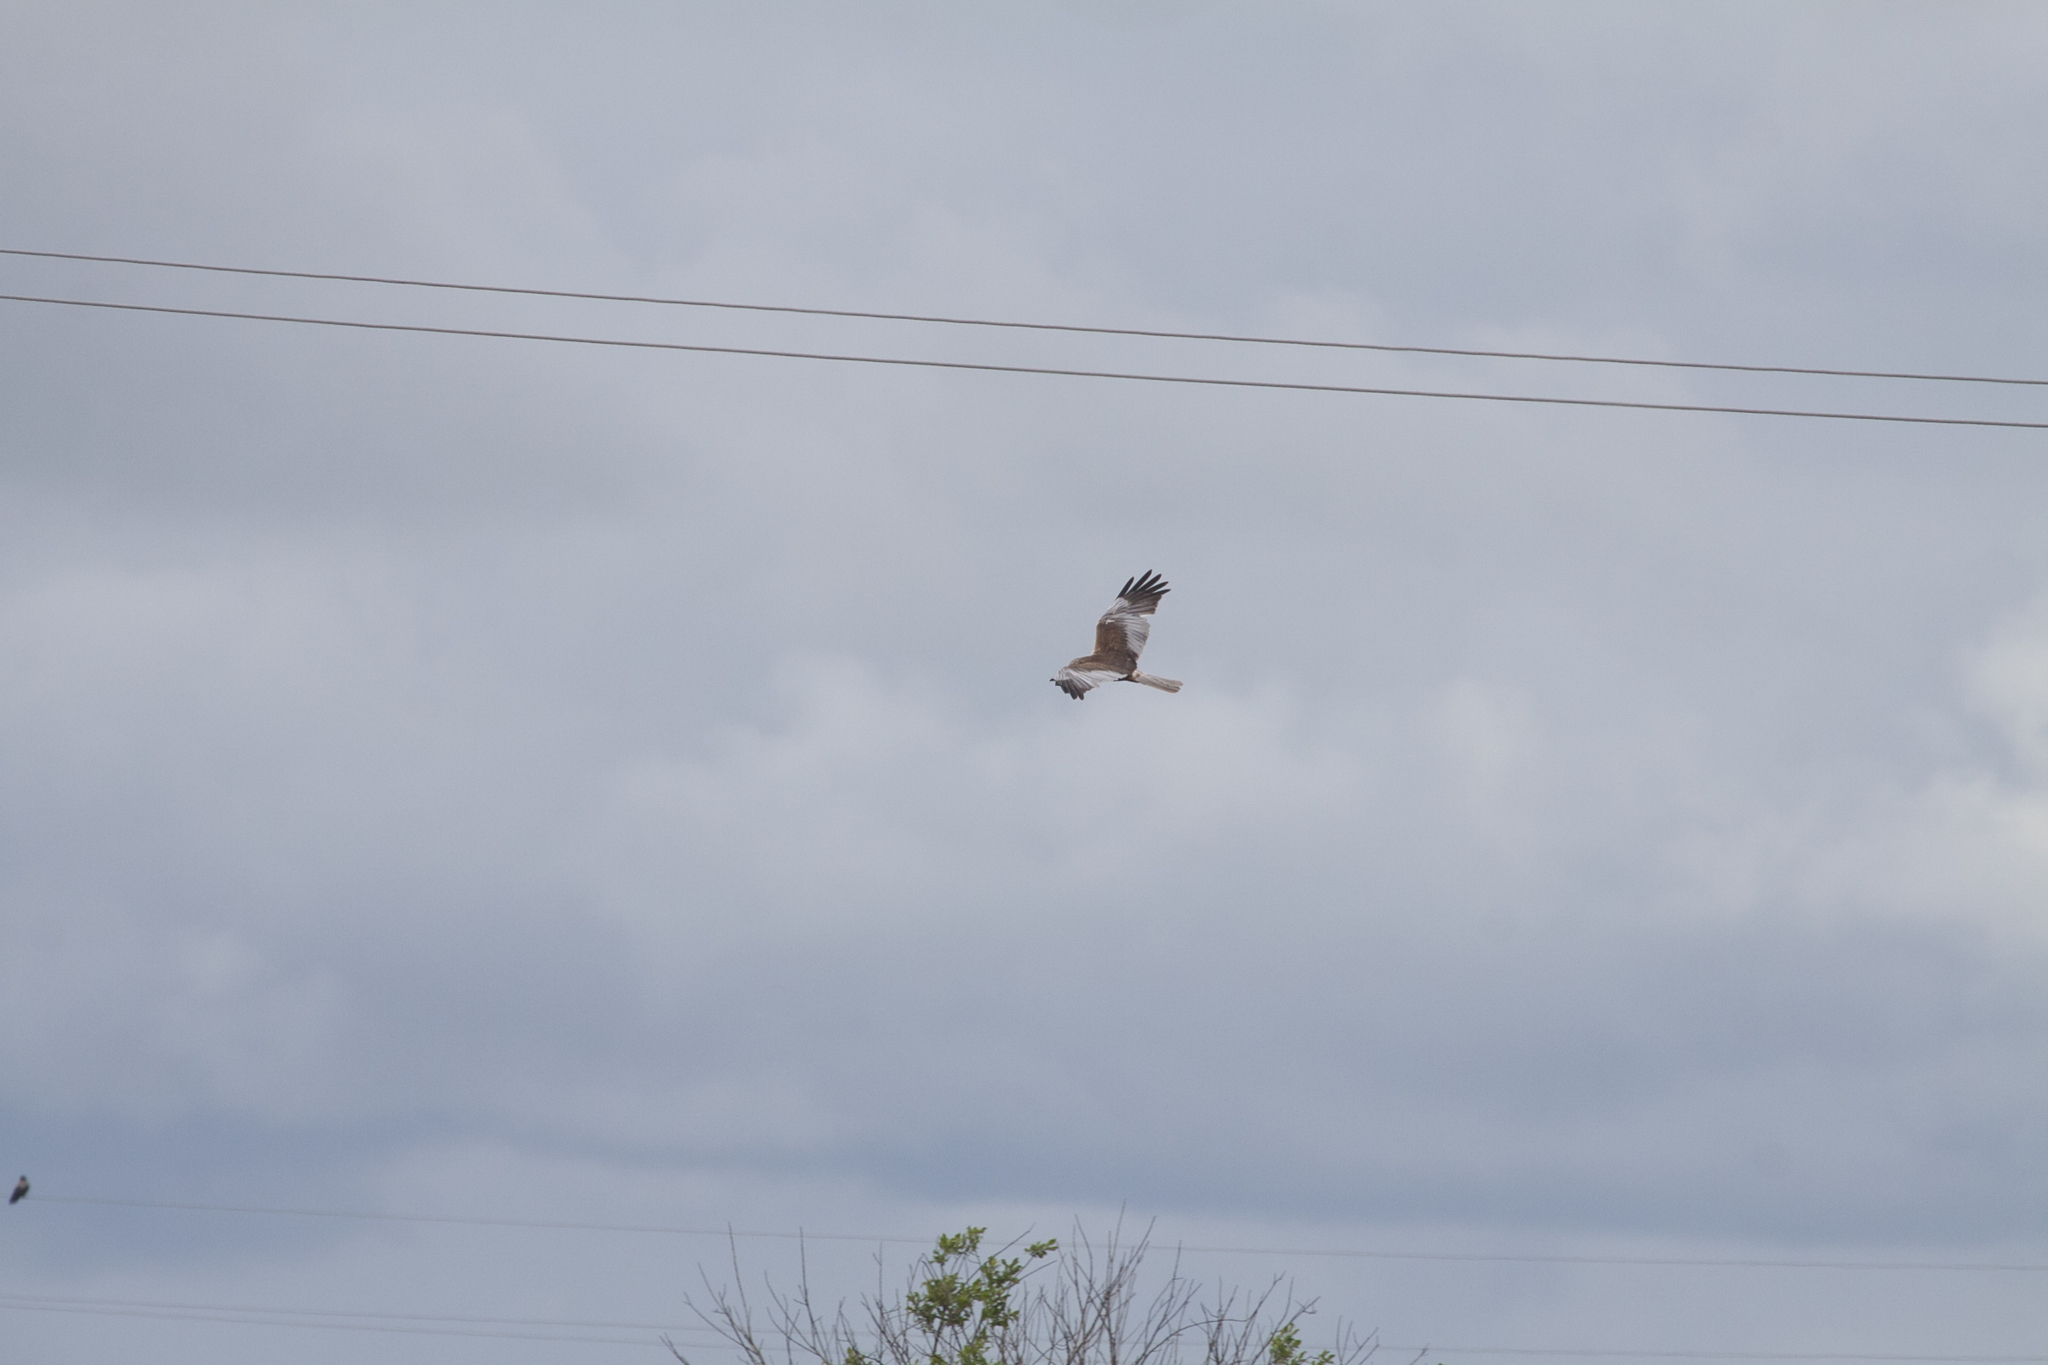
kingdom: Animalia
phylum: Chordata
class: Aves
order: Accipitriformes
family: Accipitridae
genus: Circus
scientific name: Circus aeruginosus
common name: Western marsh harrier
